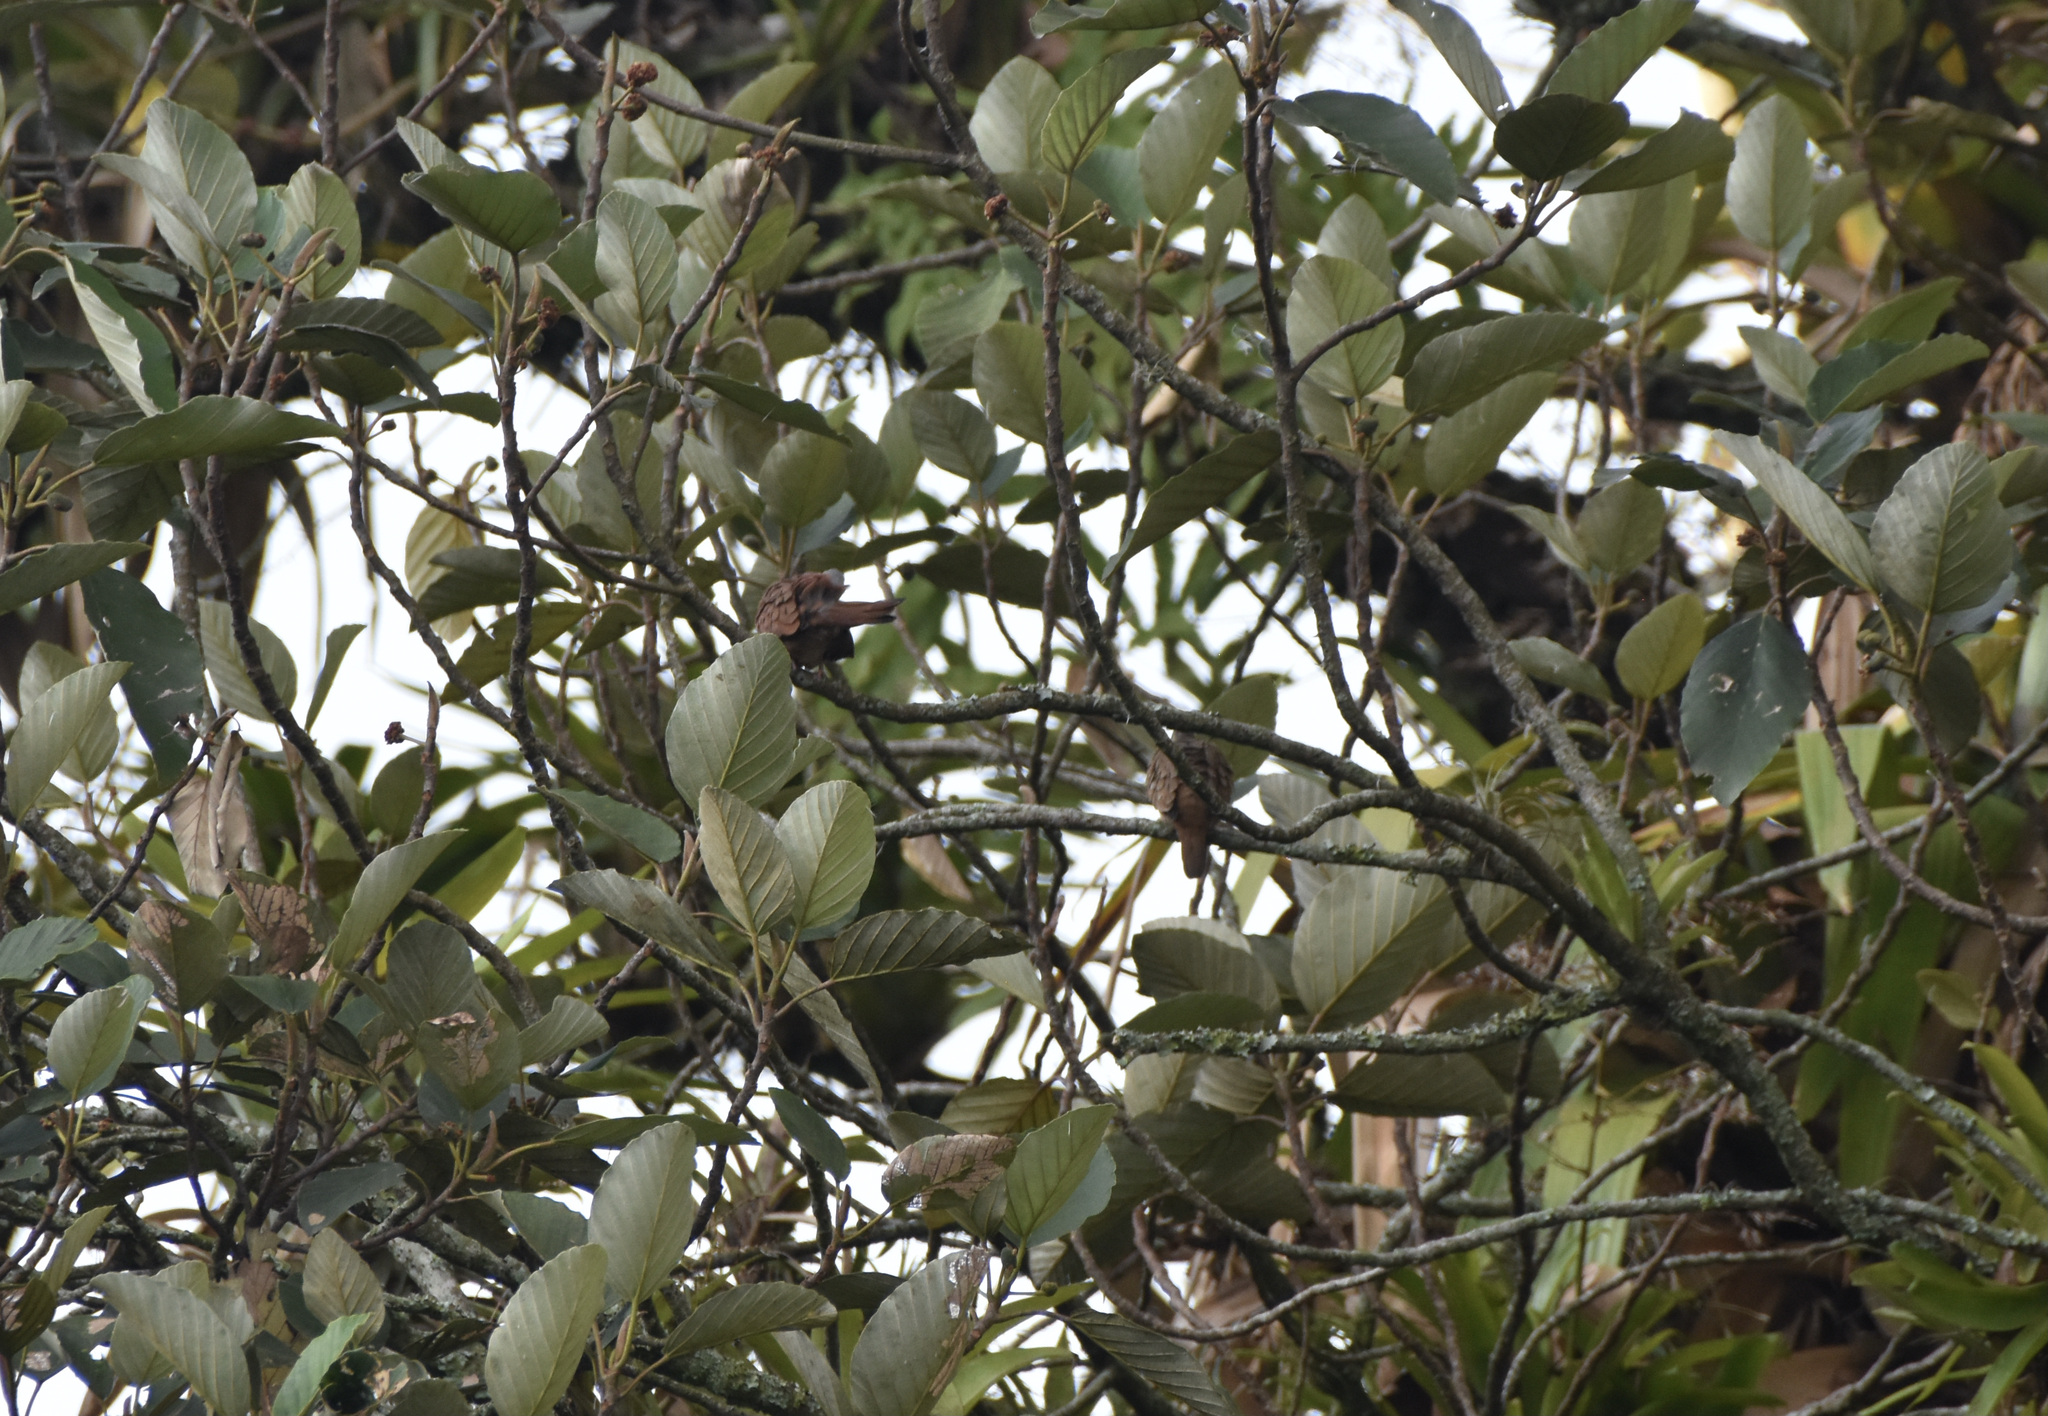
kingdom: Animalia
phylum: Chordata
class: Aves
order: Columbiformes
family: Columbidae
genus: Columbina
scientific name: Columbina talpacoti
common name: Ruddy ground dove
